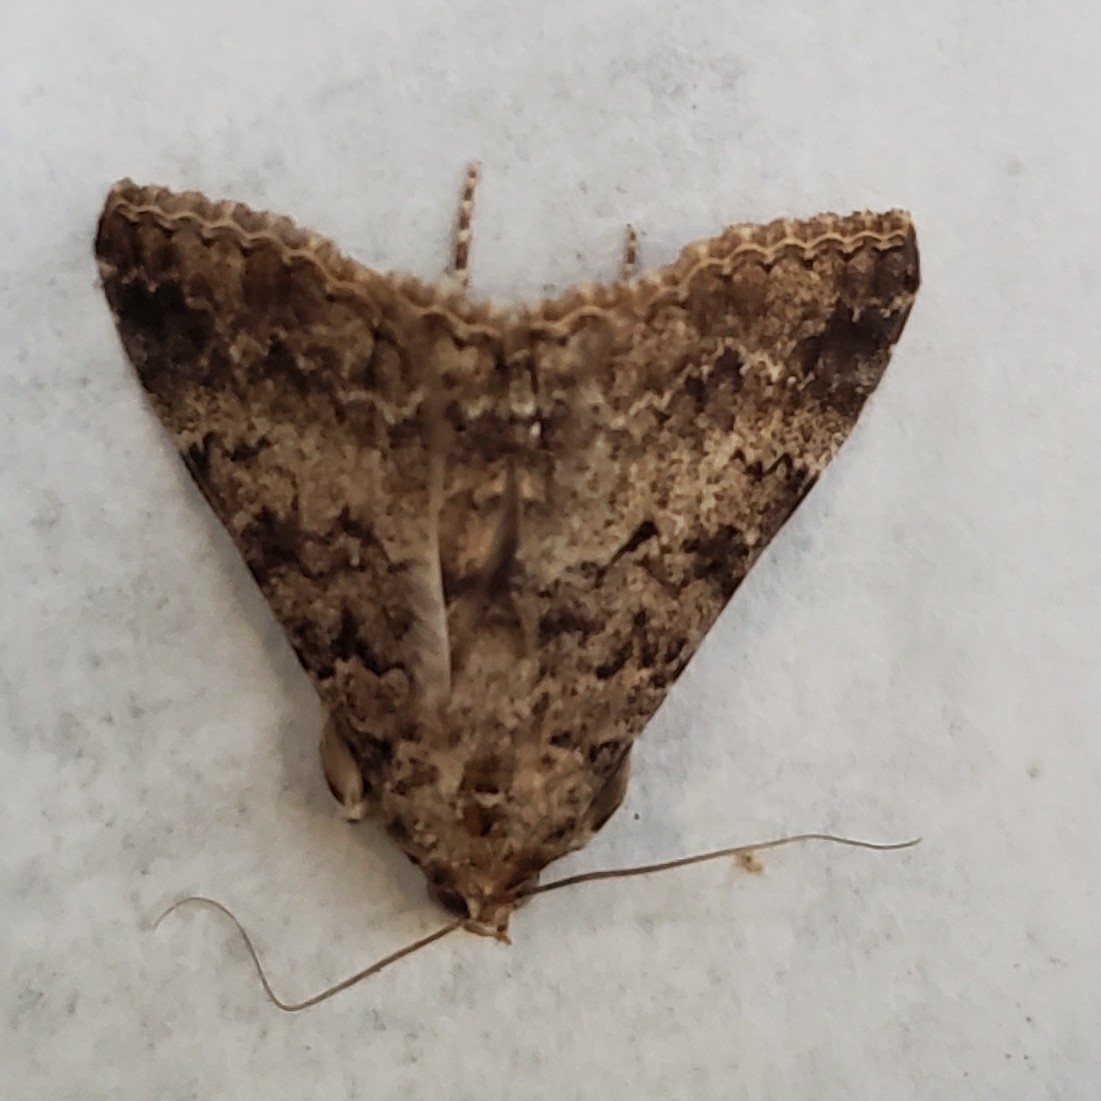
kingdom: Animalia
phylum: Arthropoda
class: Insecta
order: Lepidoptera
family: Erebidae
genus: Polydesma
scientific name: Polydesma boarmoides
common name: Moth
